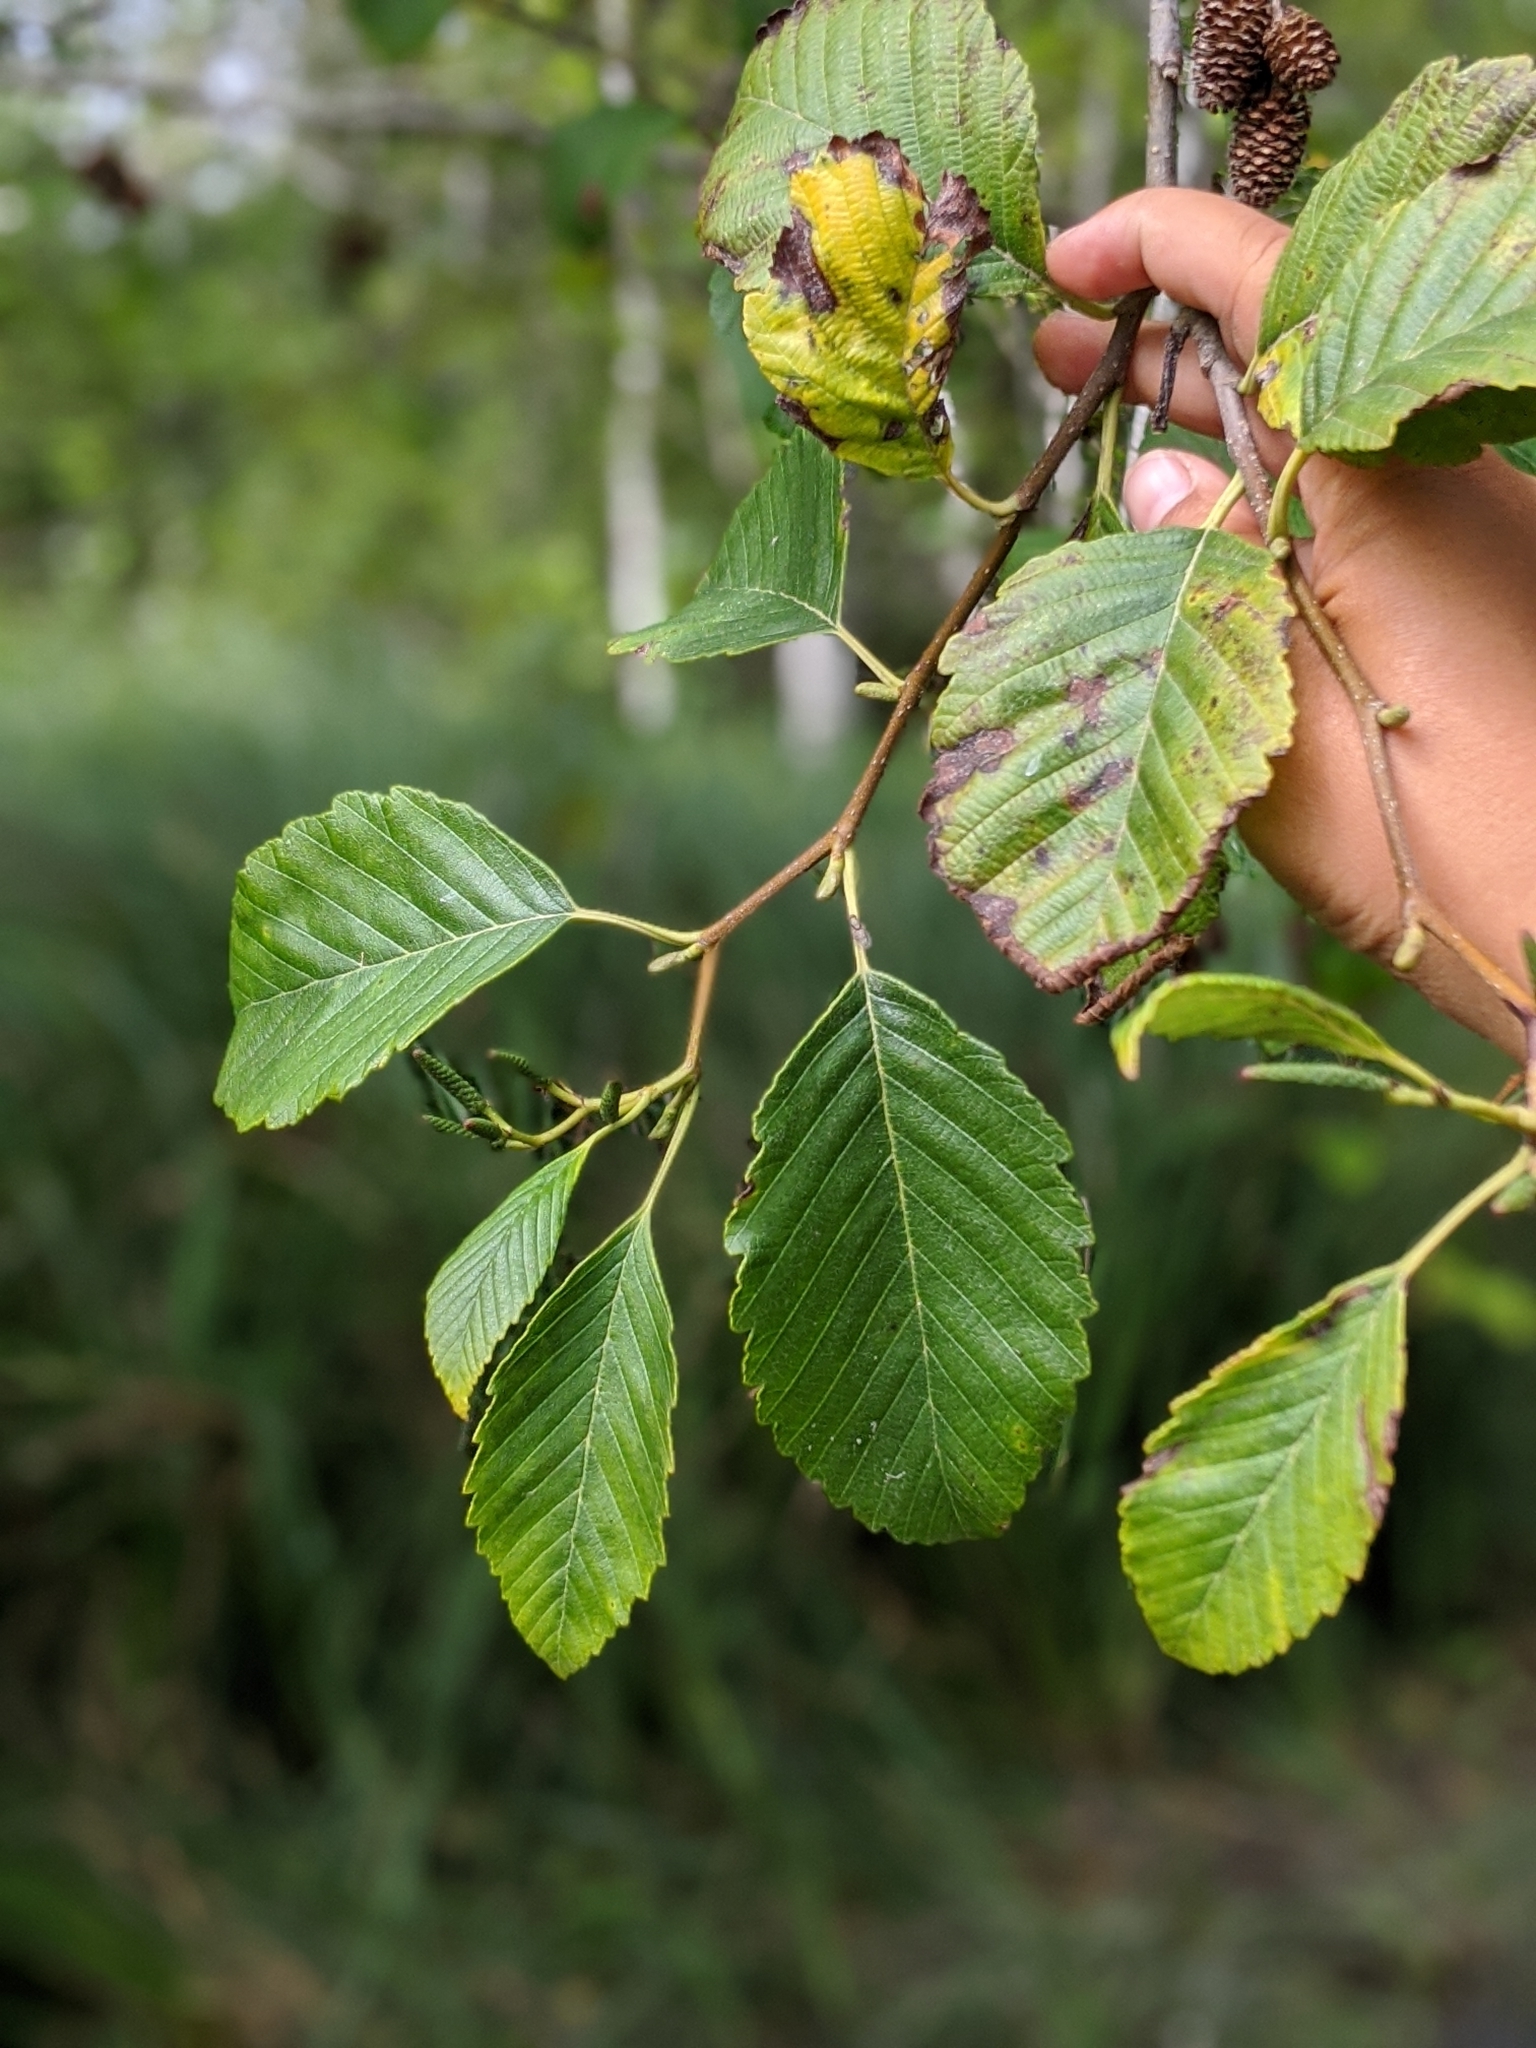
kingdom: Plantae
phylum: Tracheophyta
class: Magnoliopsida
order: Fagales
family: Betulaceae
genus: Alnus
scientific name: Alnus rubra
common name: Red alder
